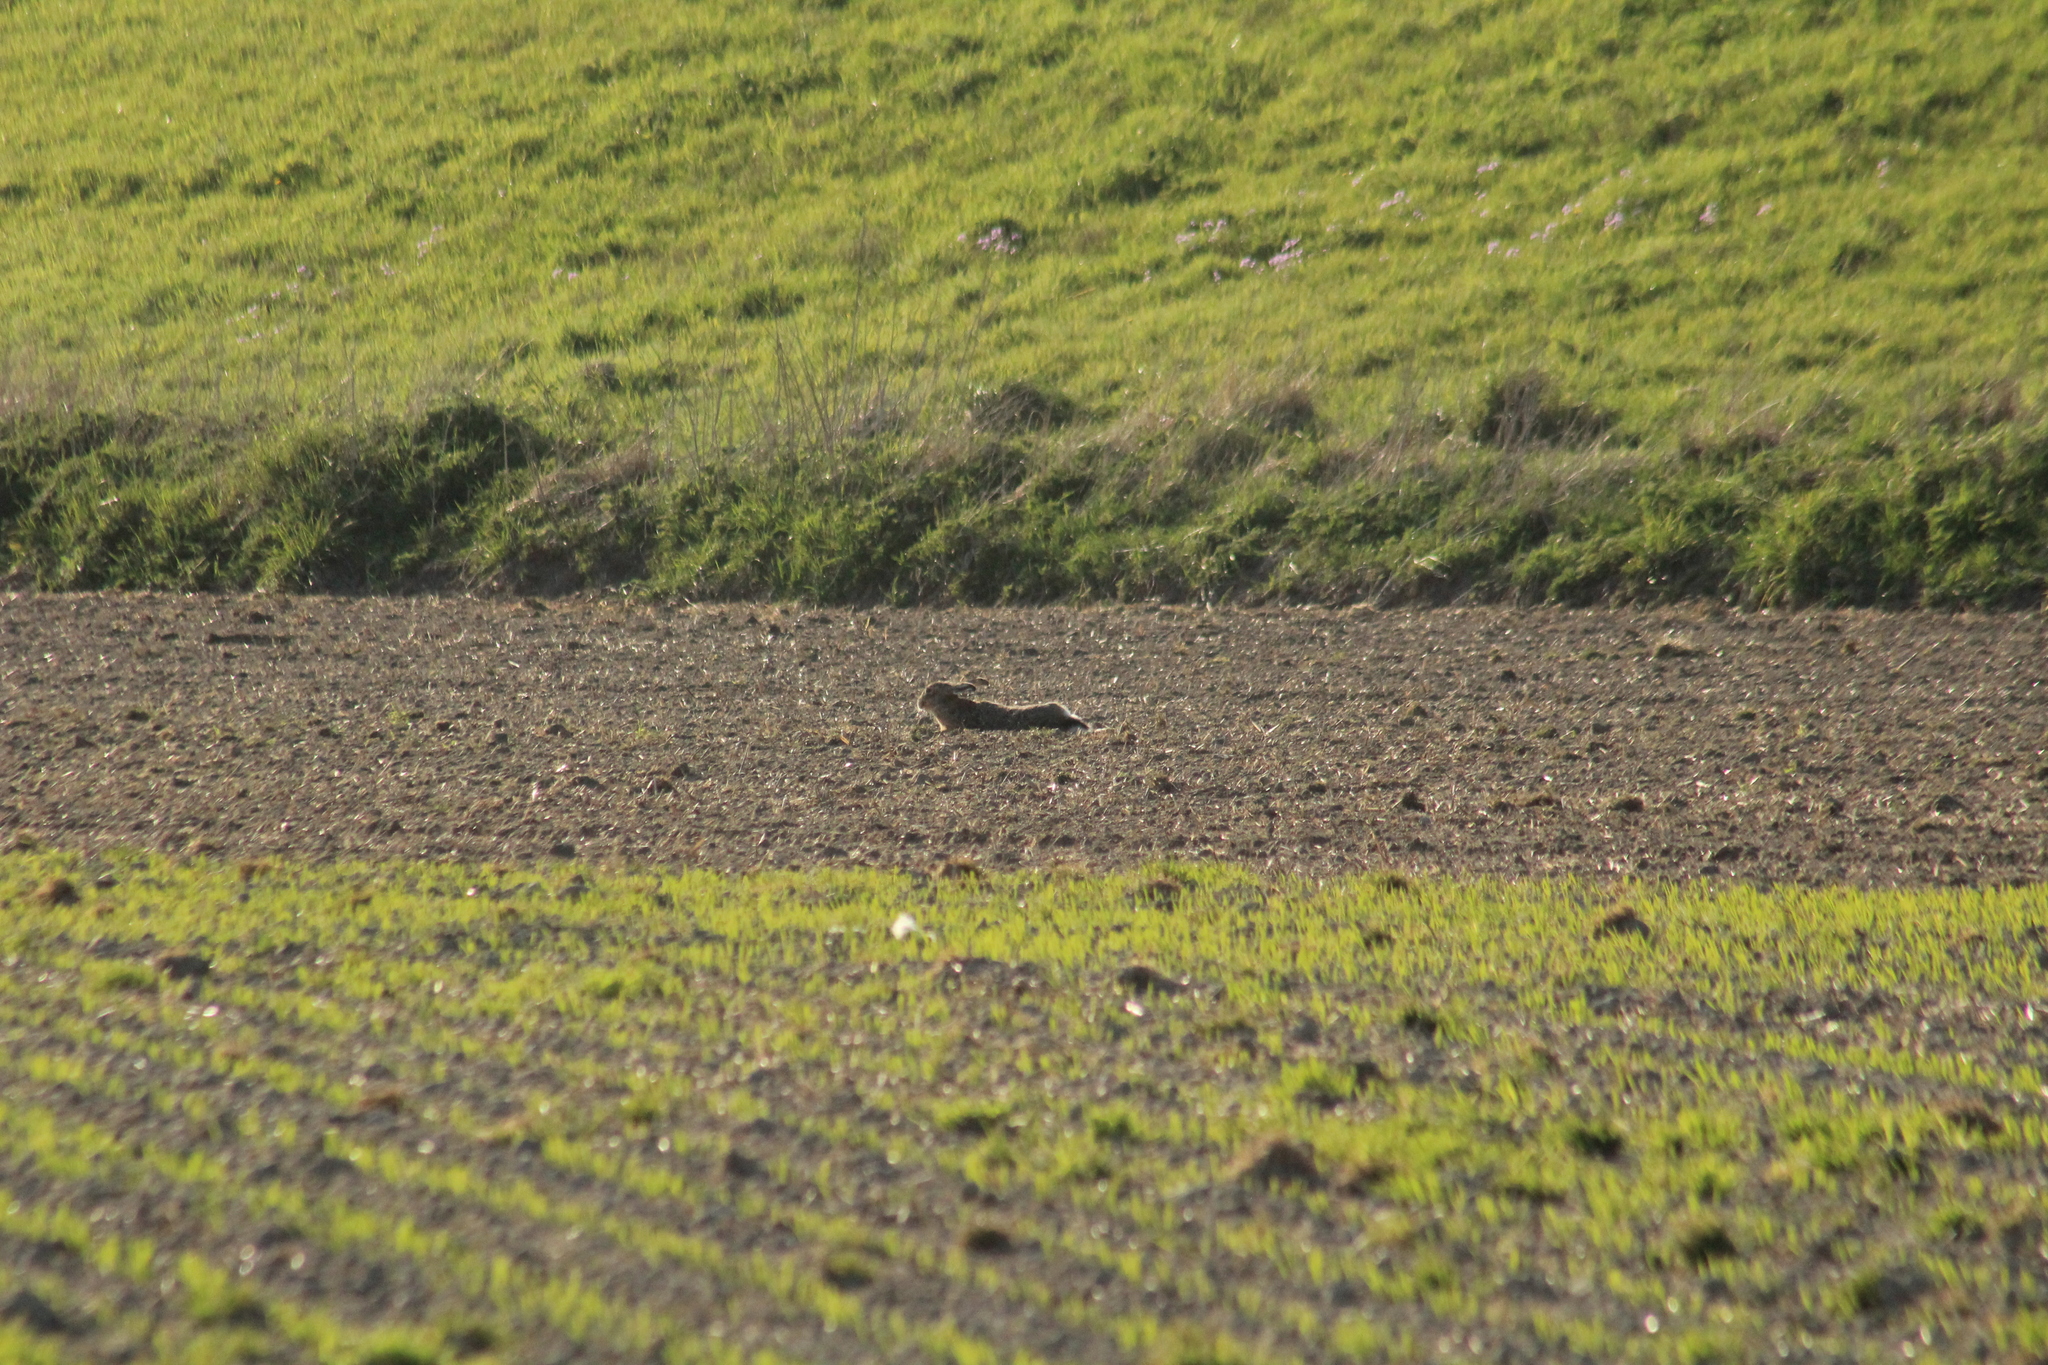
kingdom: Animalia
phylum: Chordata
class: Mammalia
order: Lagomorpha
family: Leporidae
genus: Lepus
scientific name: Lepus europaeus
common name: European hare
